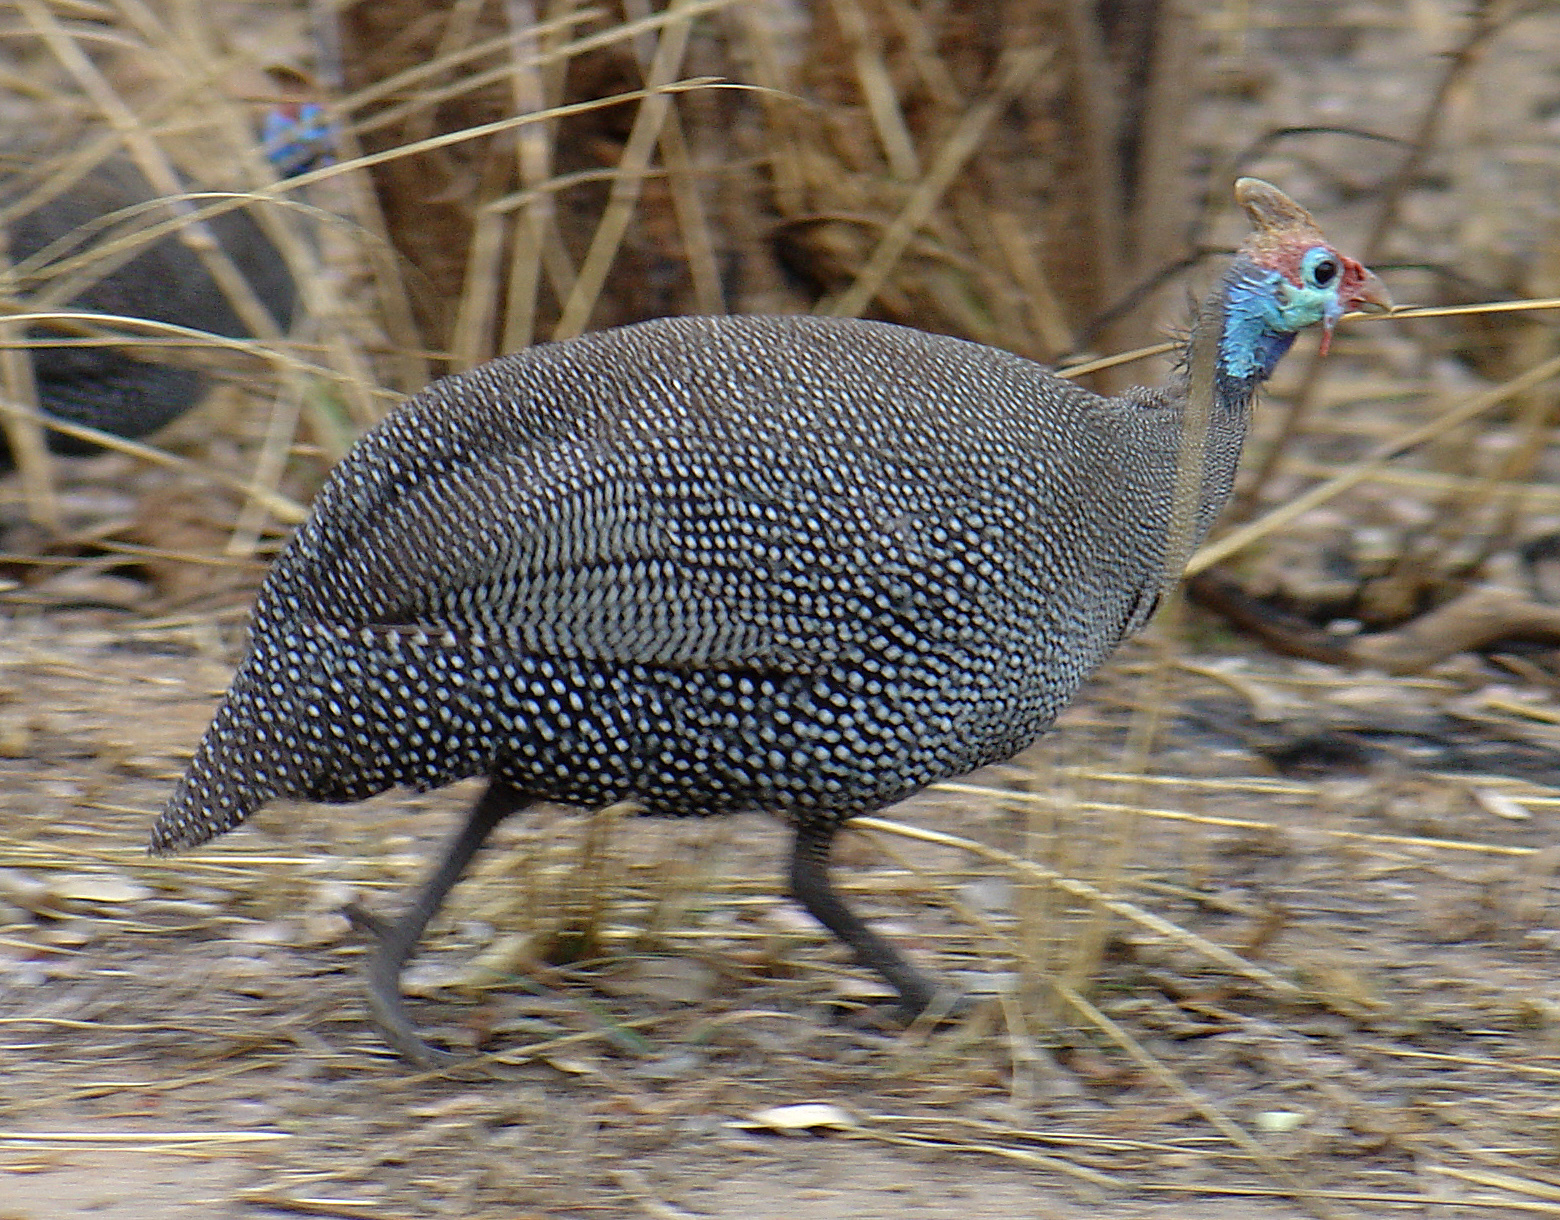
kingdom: Animalia
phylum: Chordata
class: Aves
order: Galliformes
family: Numididae
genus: Numida
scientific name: Numida meleagris
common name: Helmeted guineafowl
